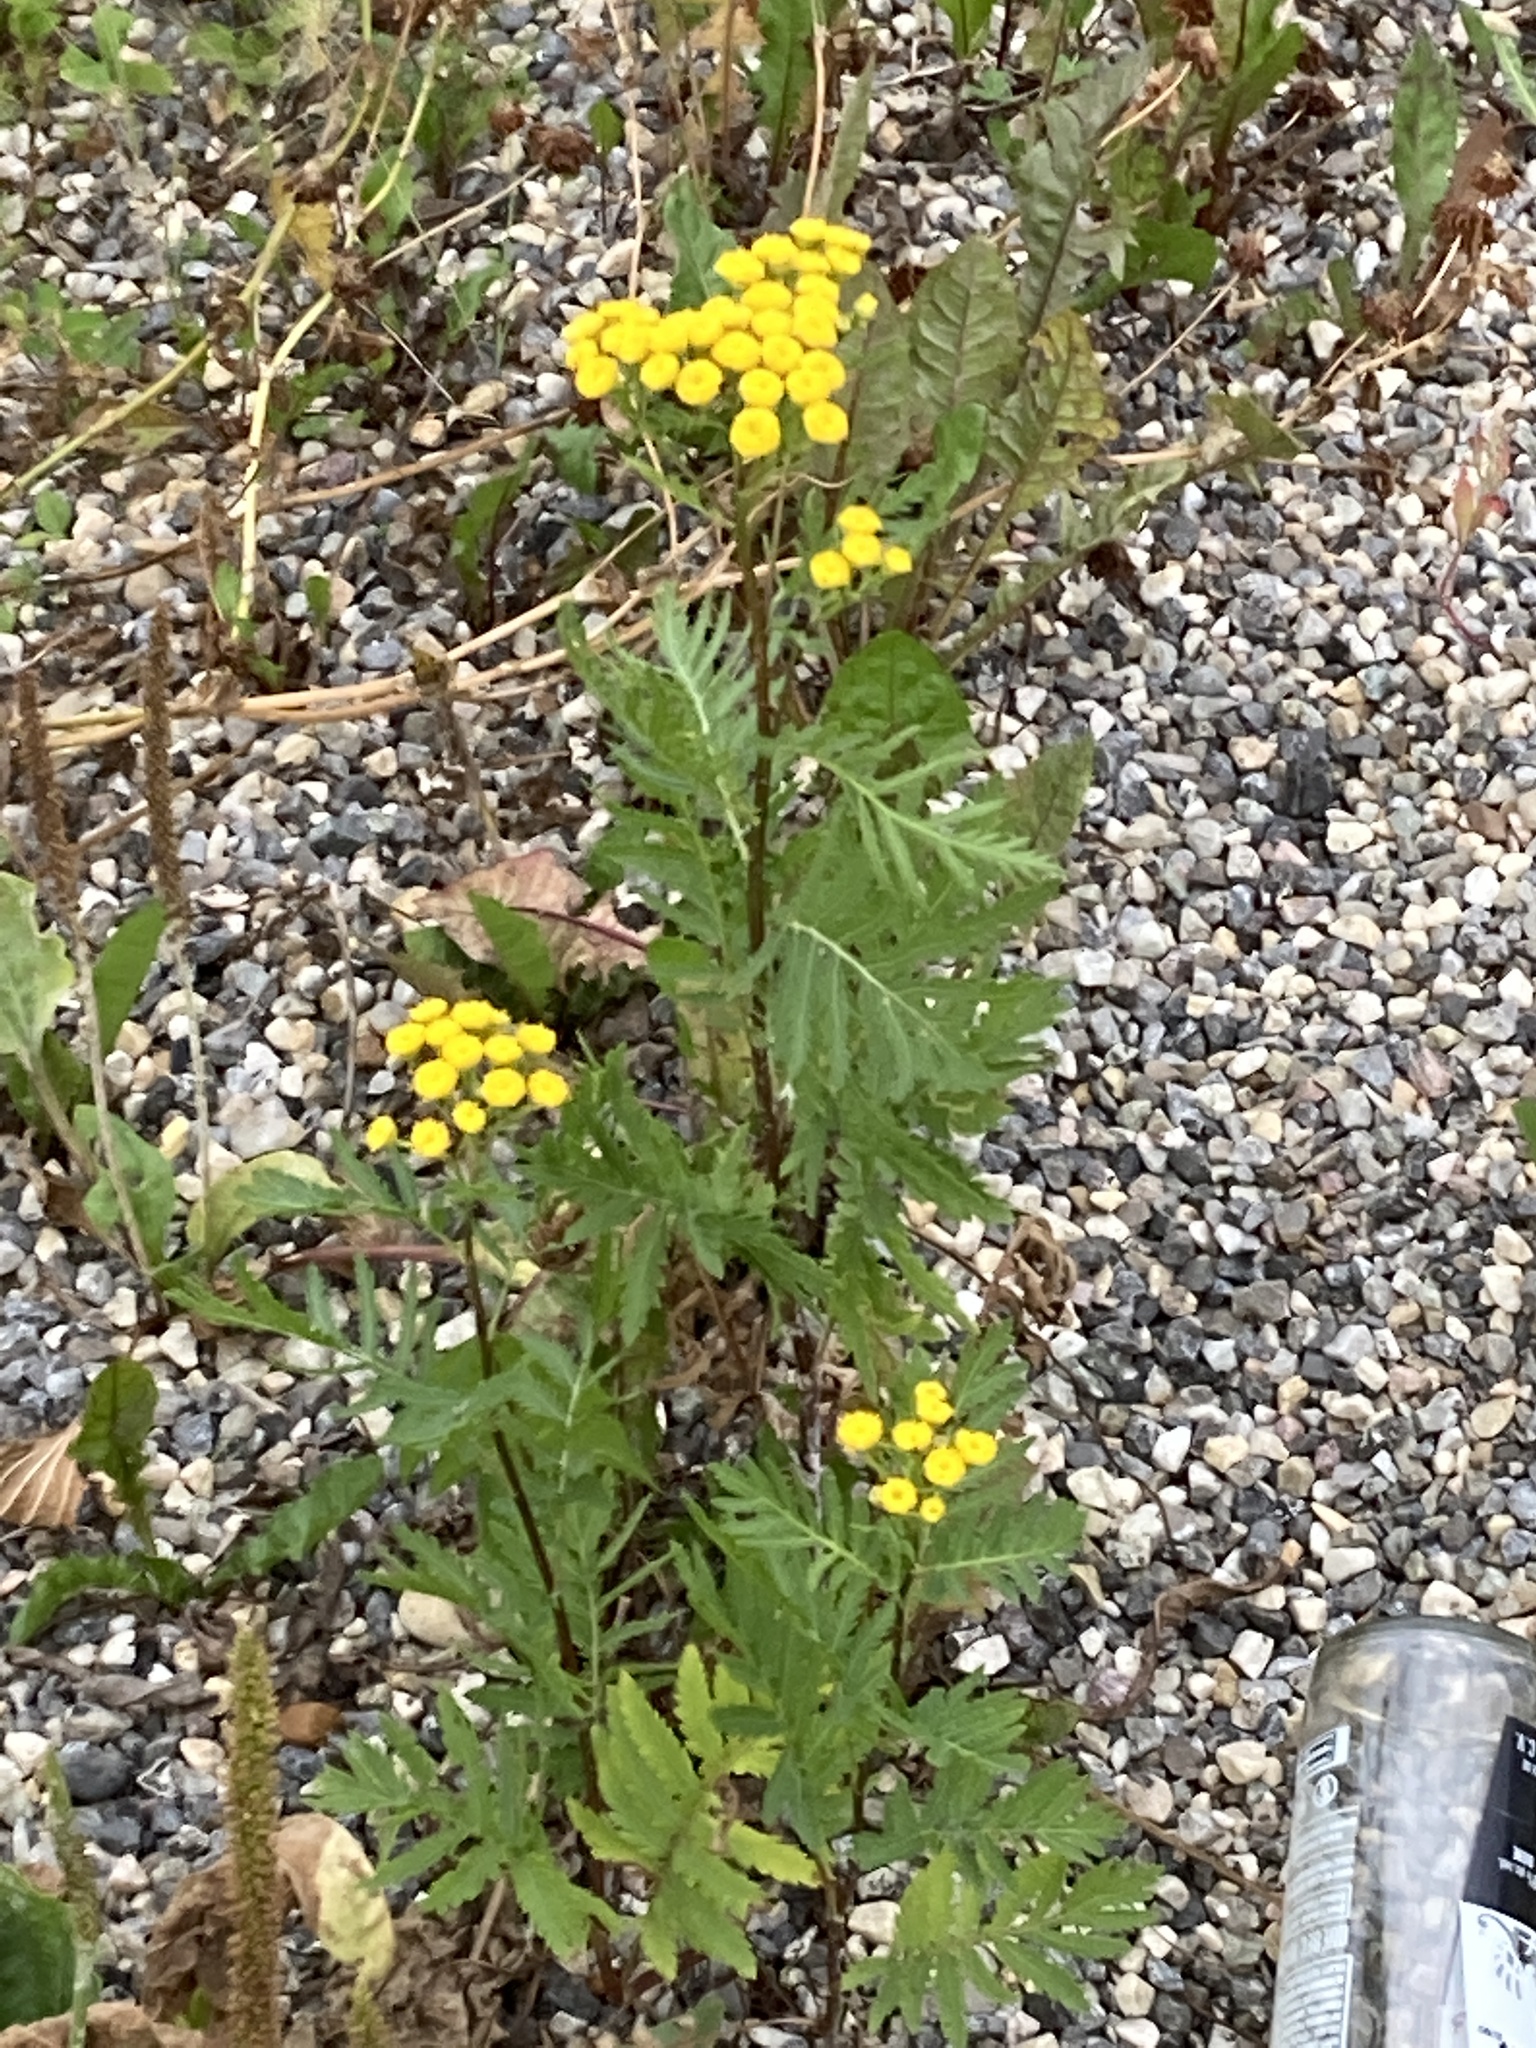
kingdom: Plantae
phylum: Tracheophyta
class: Magnoliopsida
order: Asterales
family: Asteraceae
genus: Tanacetum
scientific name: Tanacetum vulgare
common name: Common tansy
